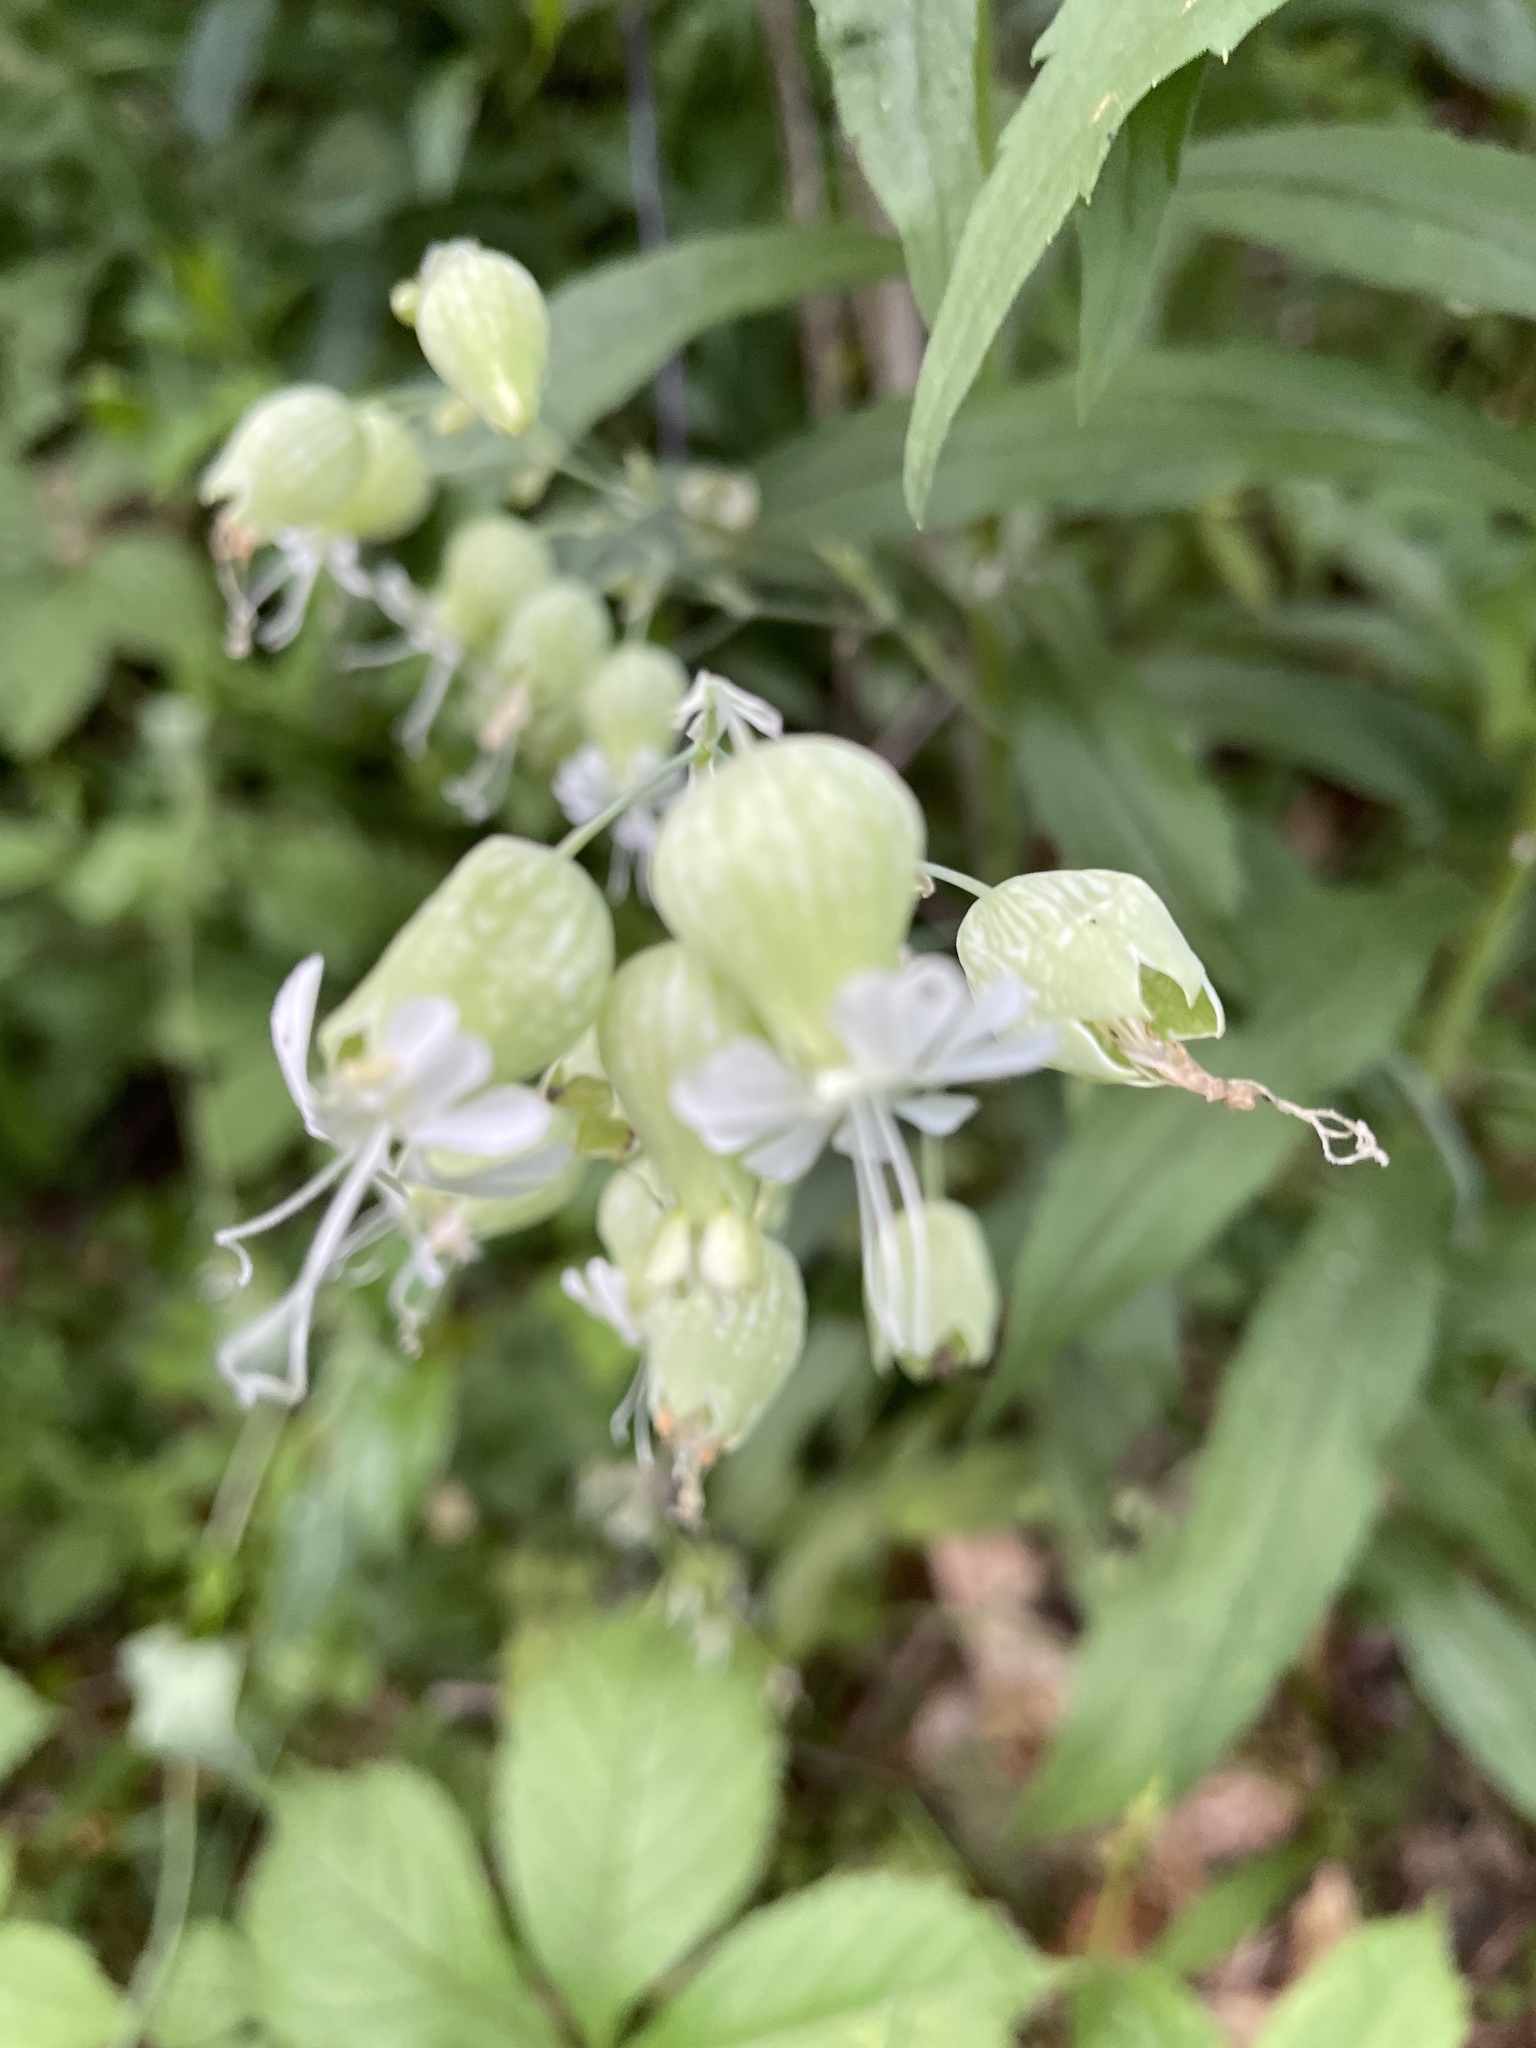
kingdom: Plantae
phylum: Tracheophyta
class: Magnoliopsida
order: Caryophyllales
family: Caryophyllaceae
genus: Silene
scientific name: Silene vulgaris
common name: Bladder campion
